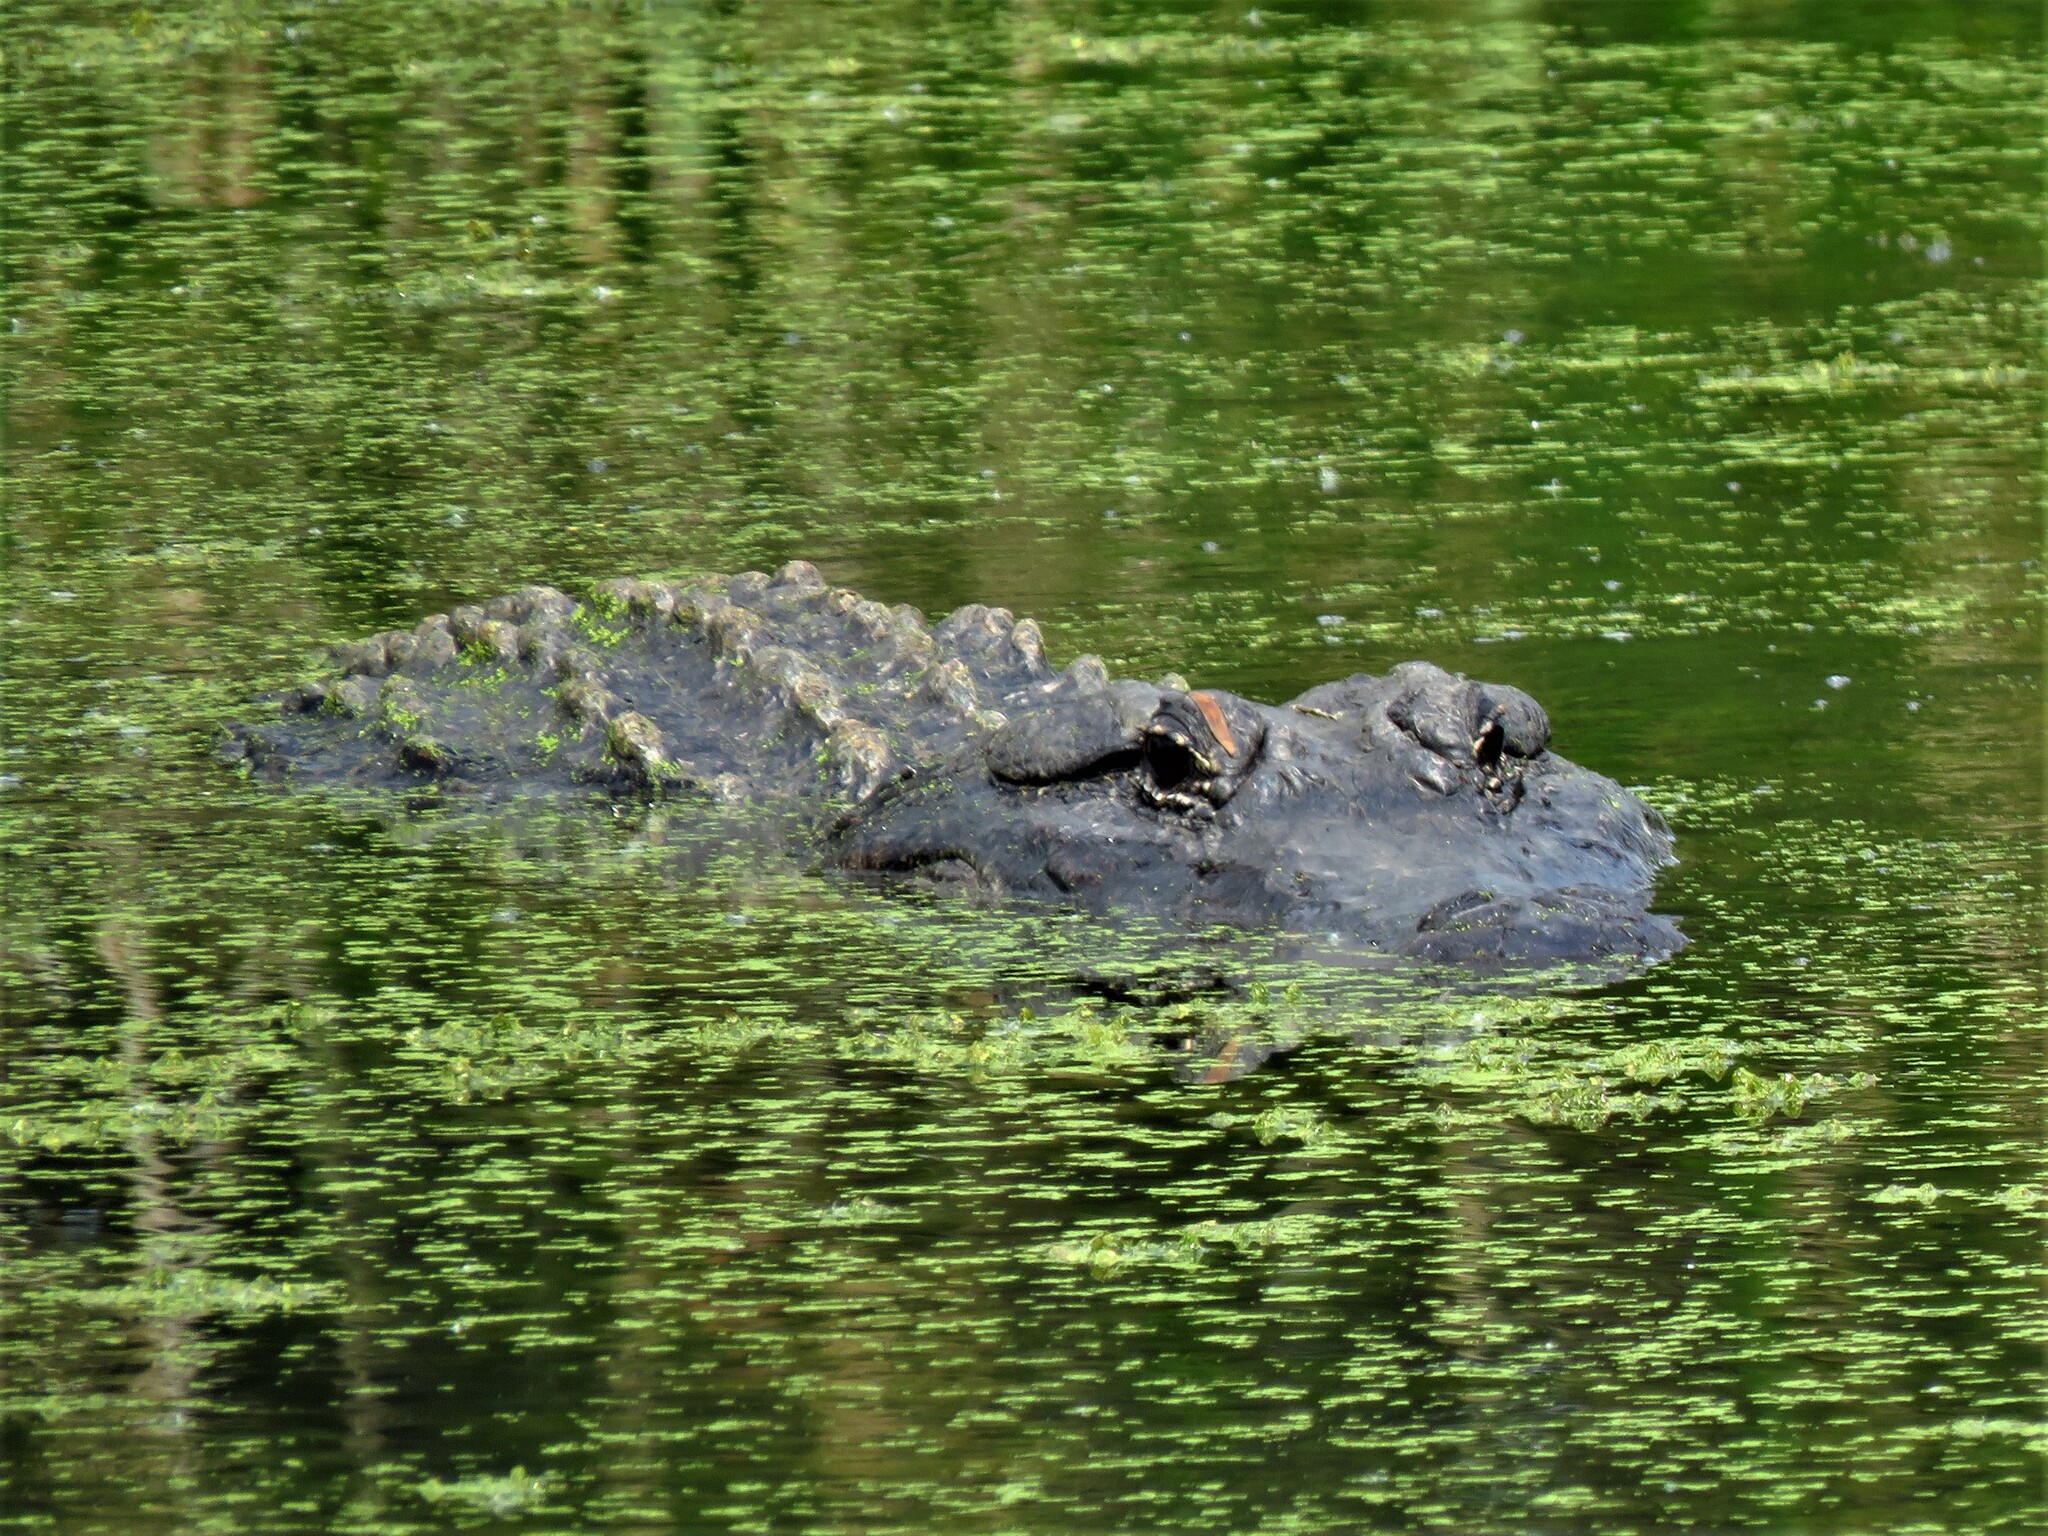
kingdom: Animalia
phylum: Chordata
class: Crocodylia
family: Alligatoridae
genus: Alligator
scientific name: Alligator mississippiensis
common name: American alligator
